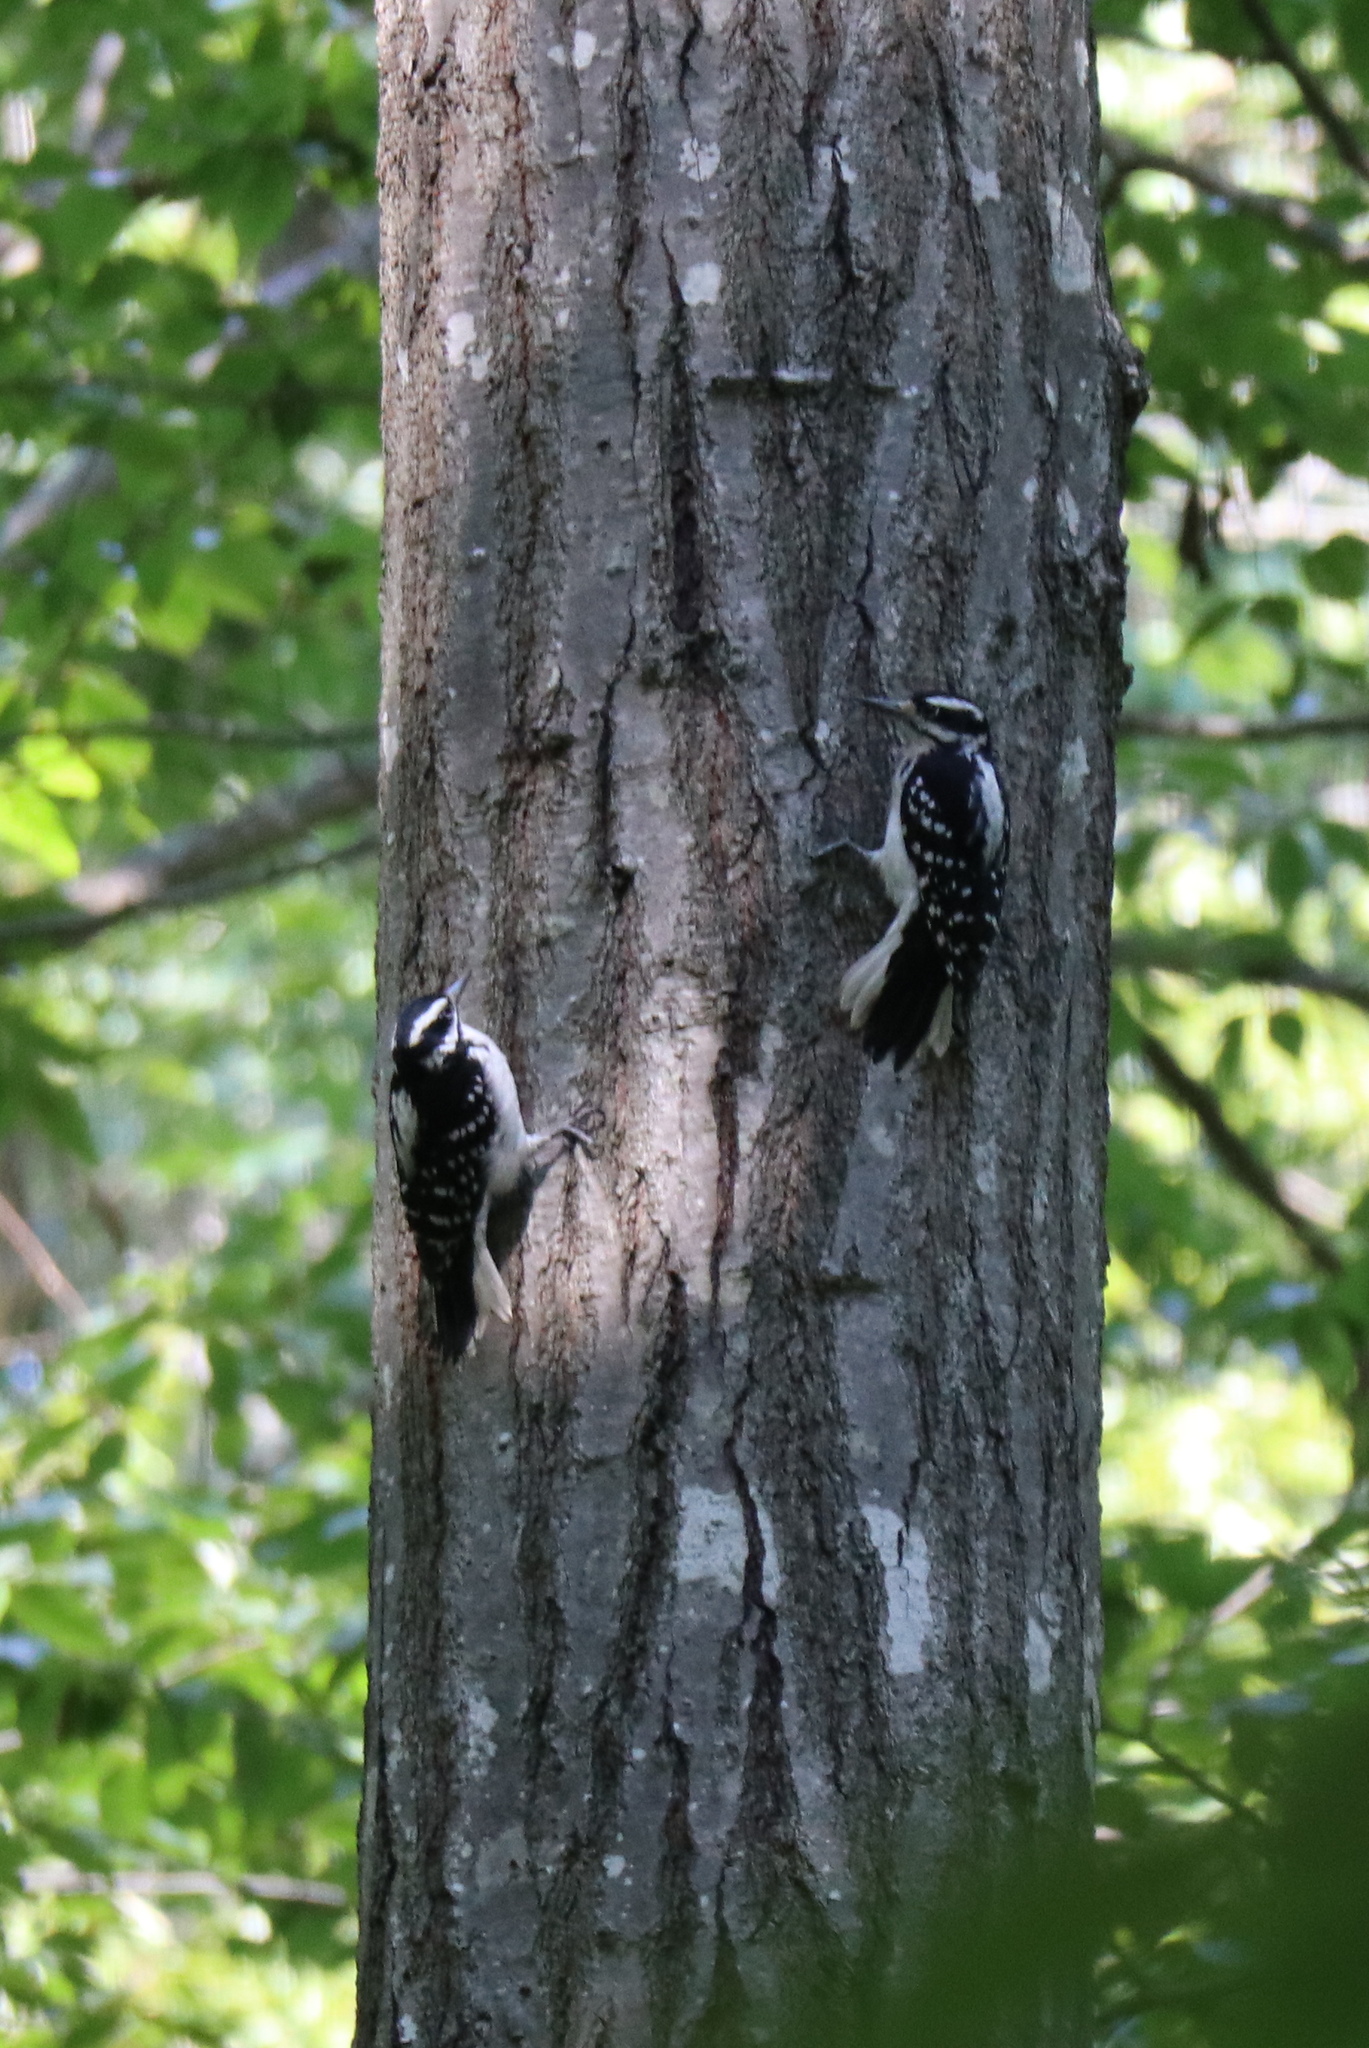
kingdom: Animalia
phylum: Chordata
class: Aves
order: Piciformes
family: Picidae
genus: Leuconotopicus
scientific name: Leuconotopicus villosus
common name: Hairy woodpecker
